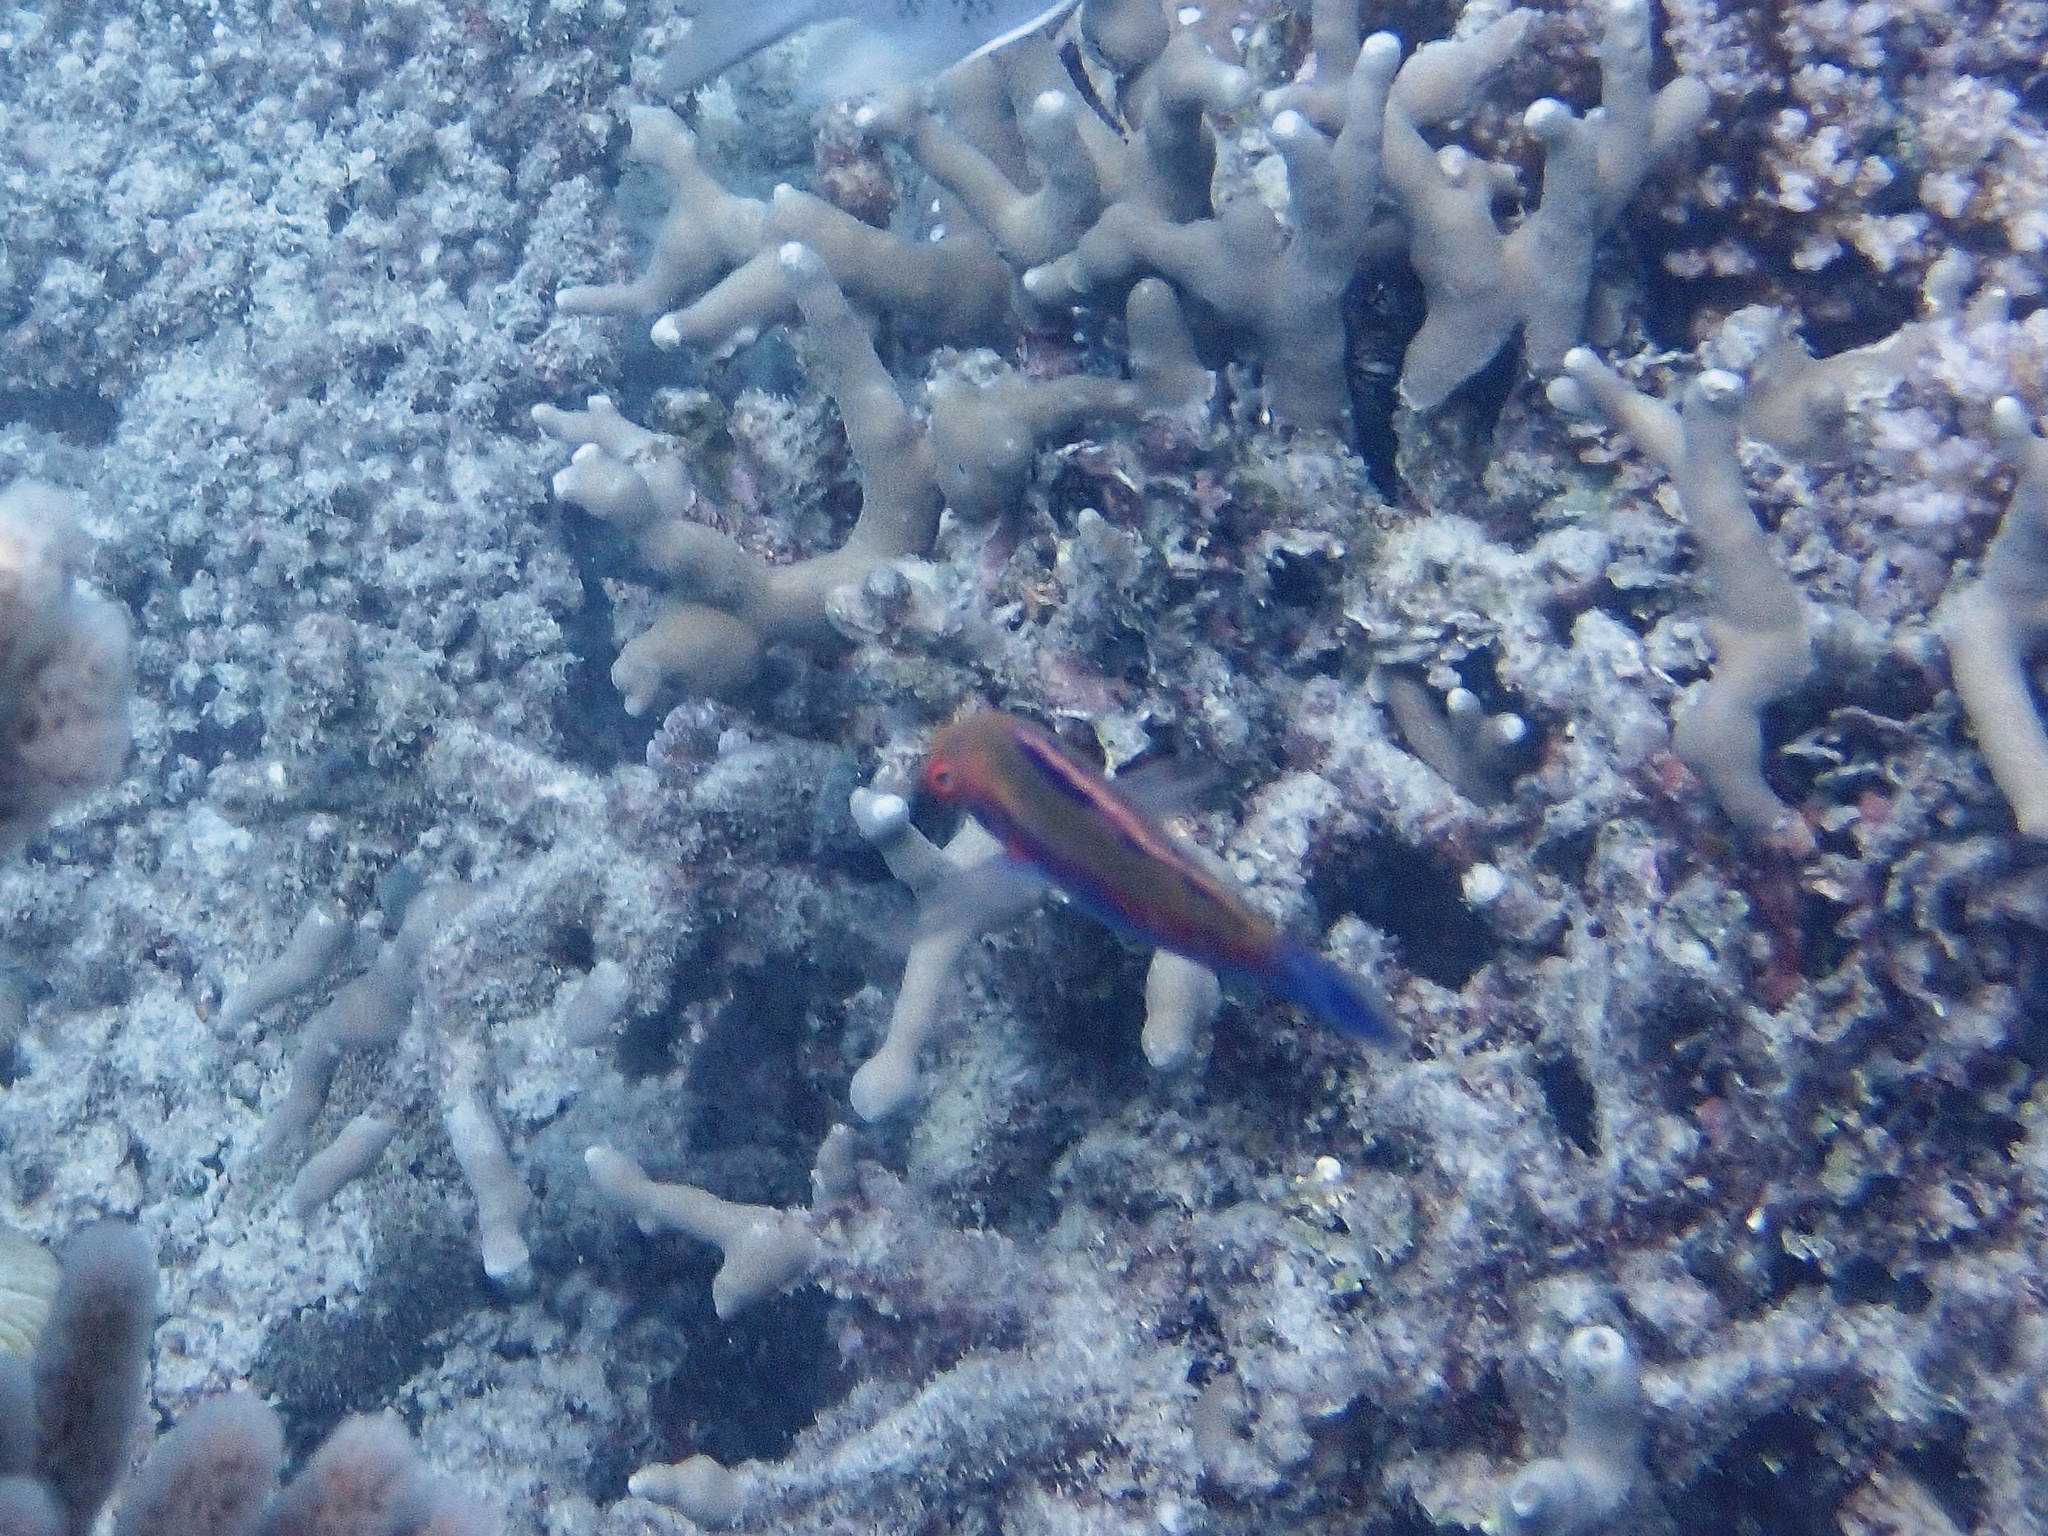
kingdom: Animalia
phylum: Chordata
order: Perciformes
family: Labridae
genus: Cirrhilabrus
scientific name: Cirrhilabrus beauperryi
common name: Beau's wrasse
